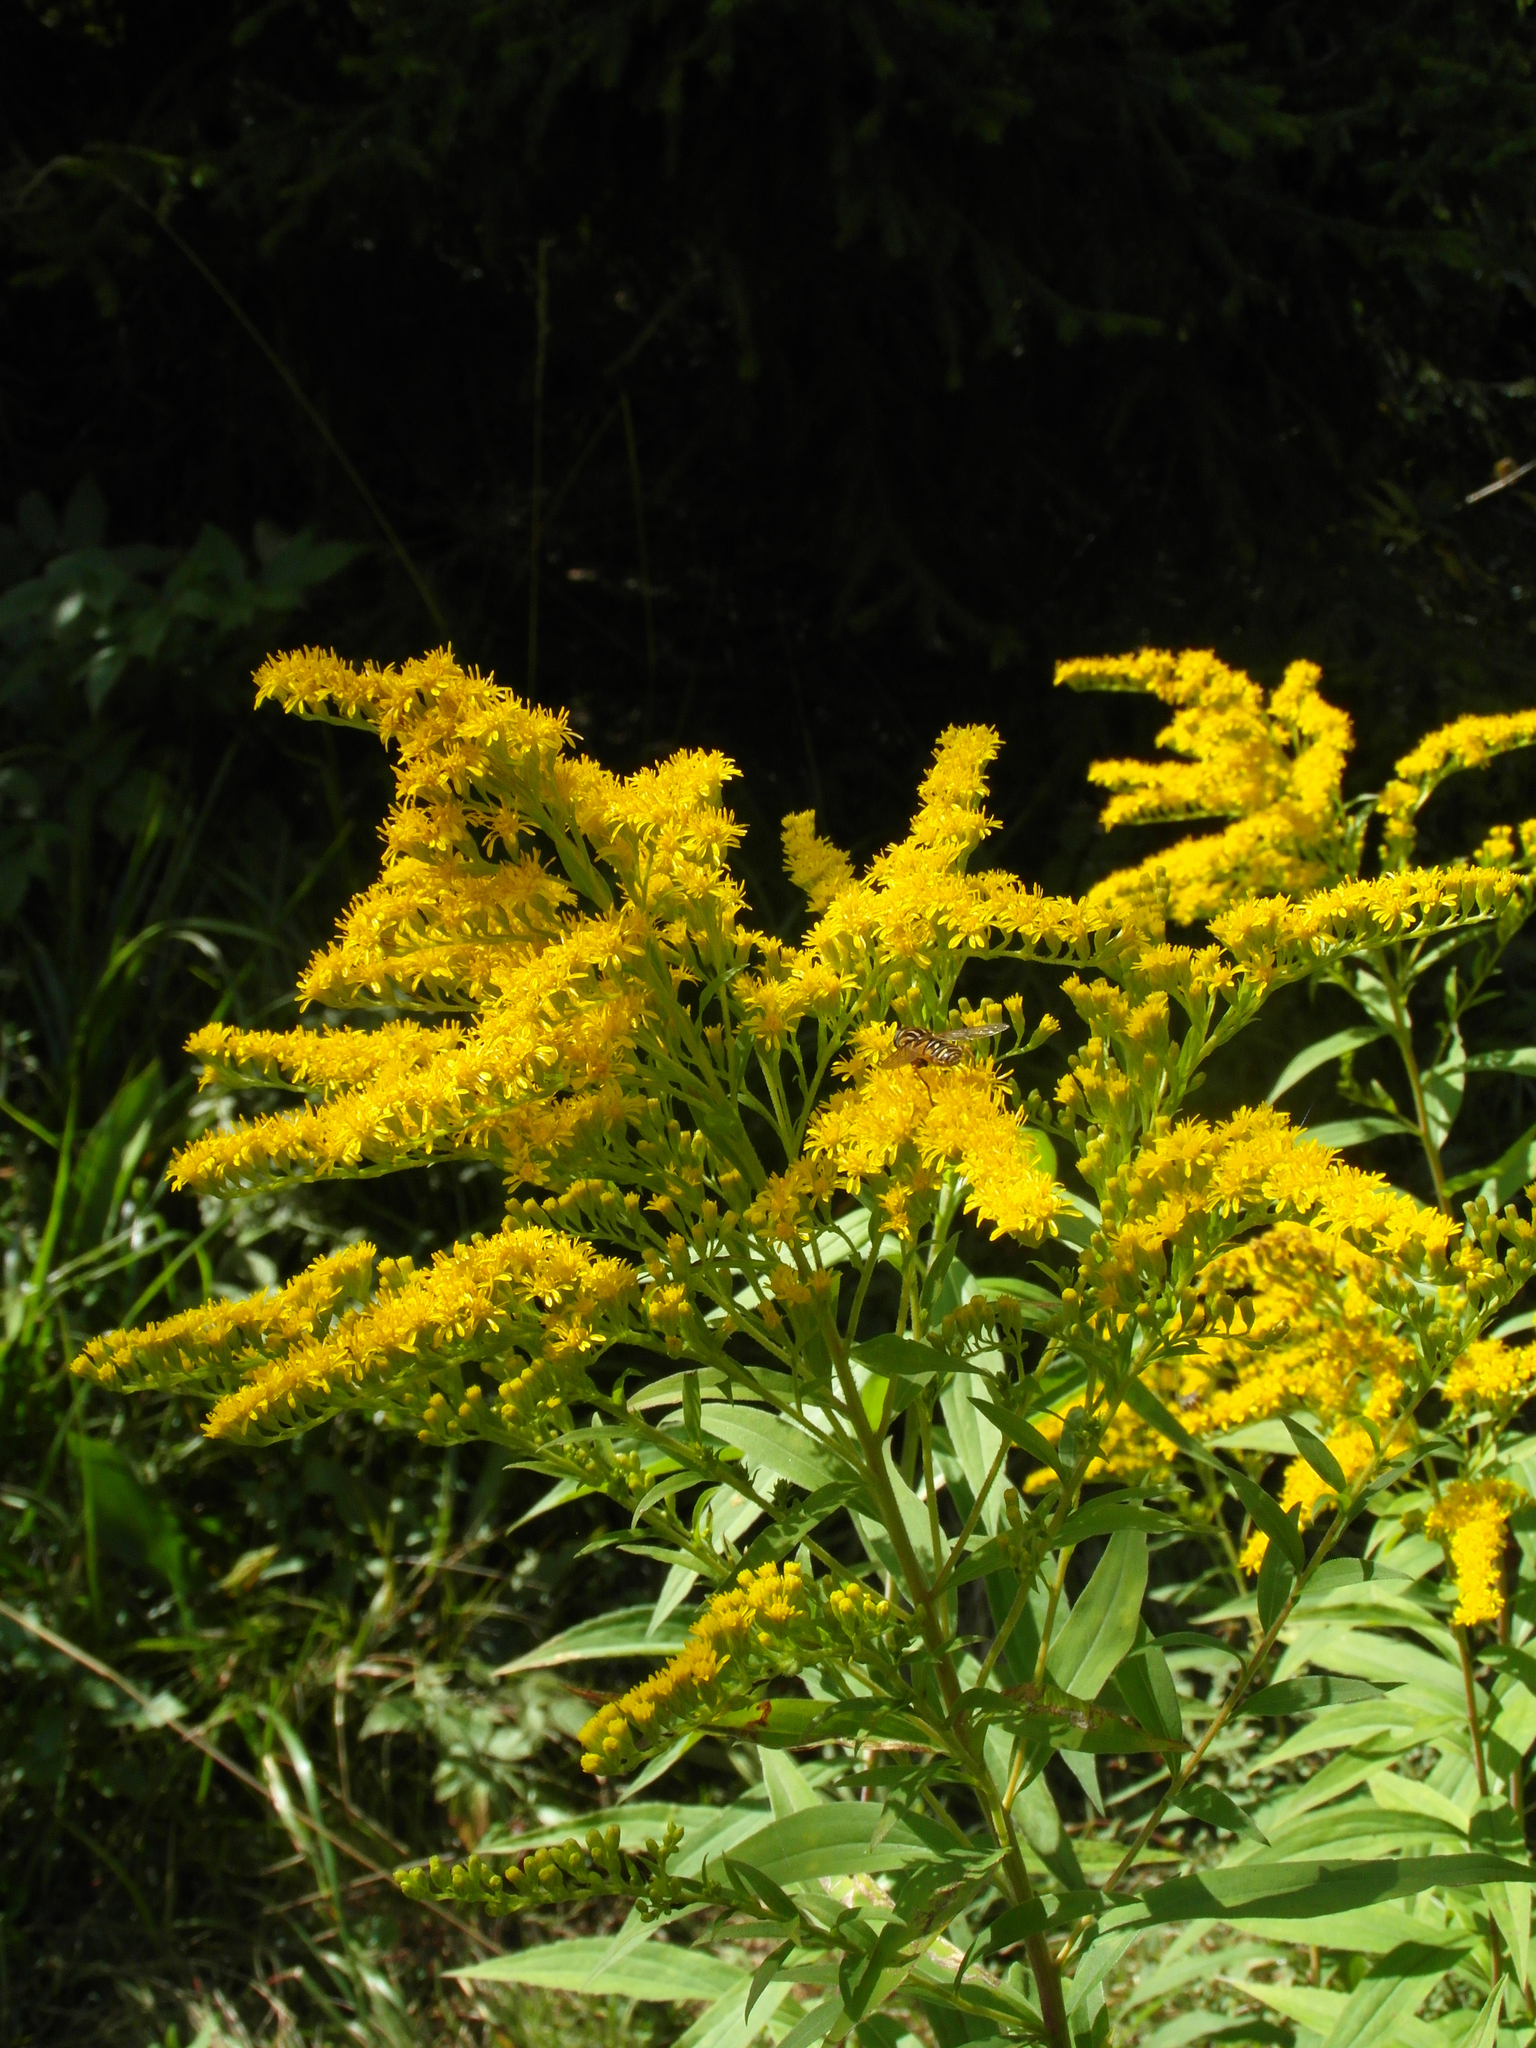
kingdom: Plantae
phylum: Tracheophyta
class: Magnoliopsida
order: Asterales
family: Asteraceae
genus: Solidago
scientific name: Solidago gigantea
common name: Giant goldenrod
